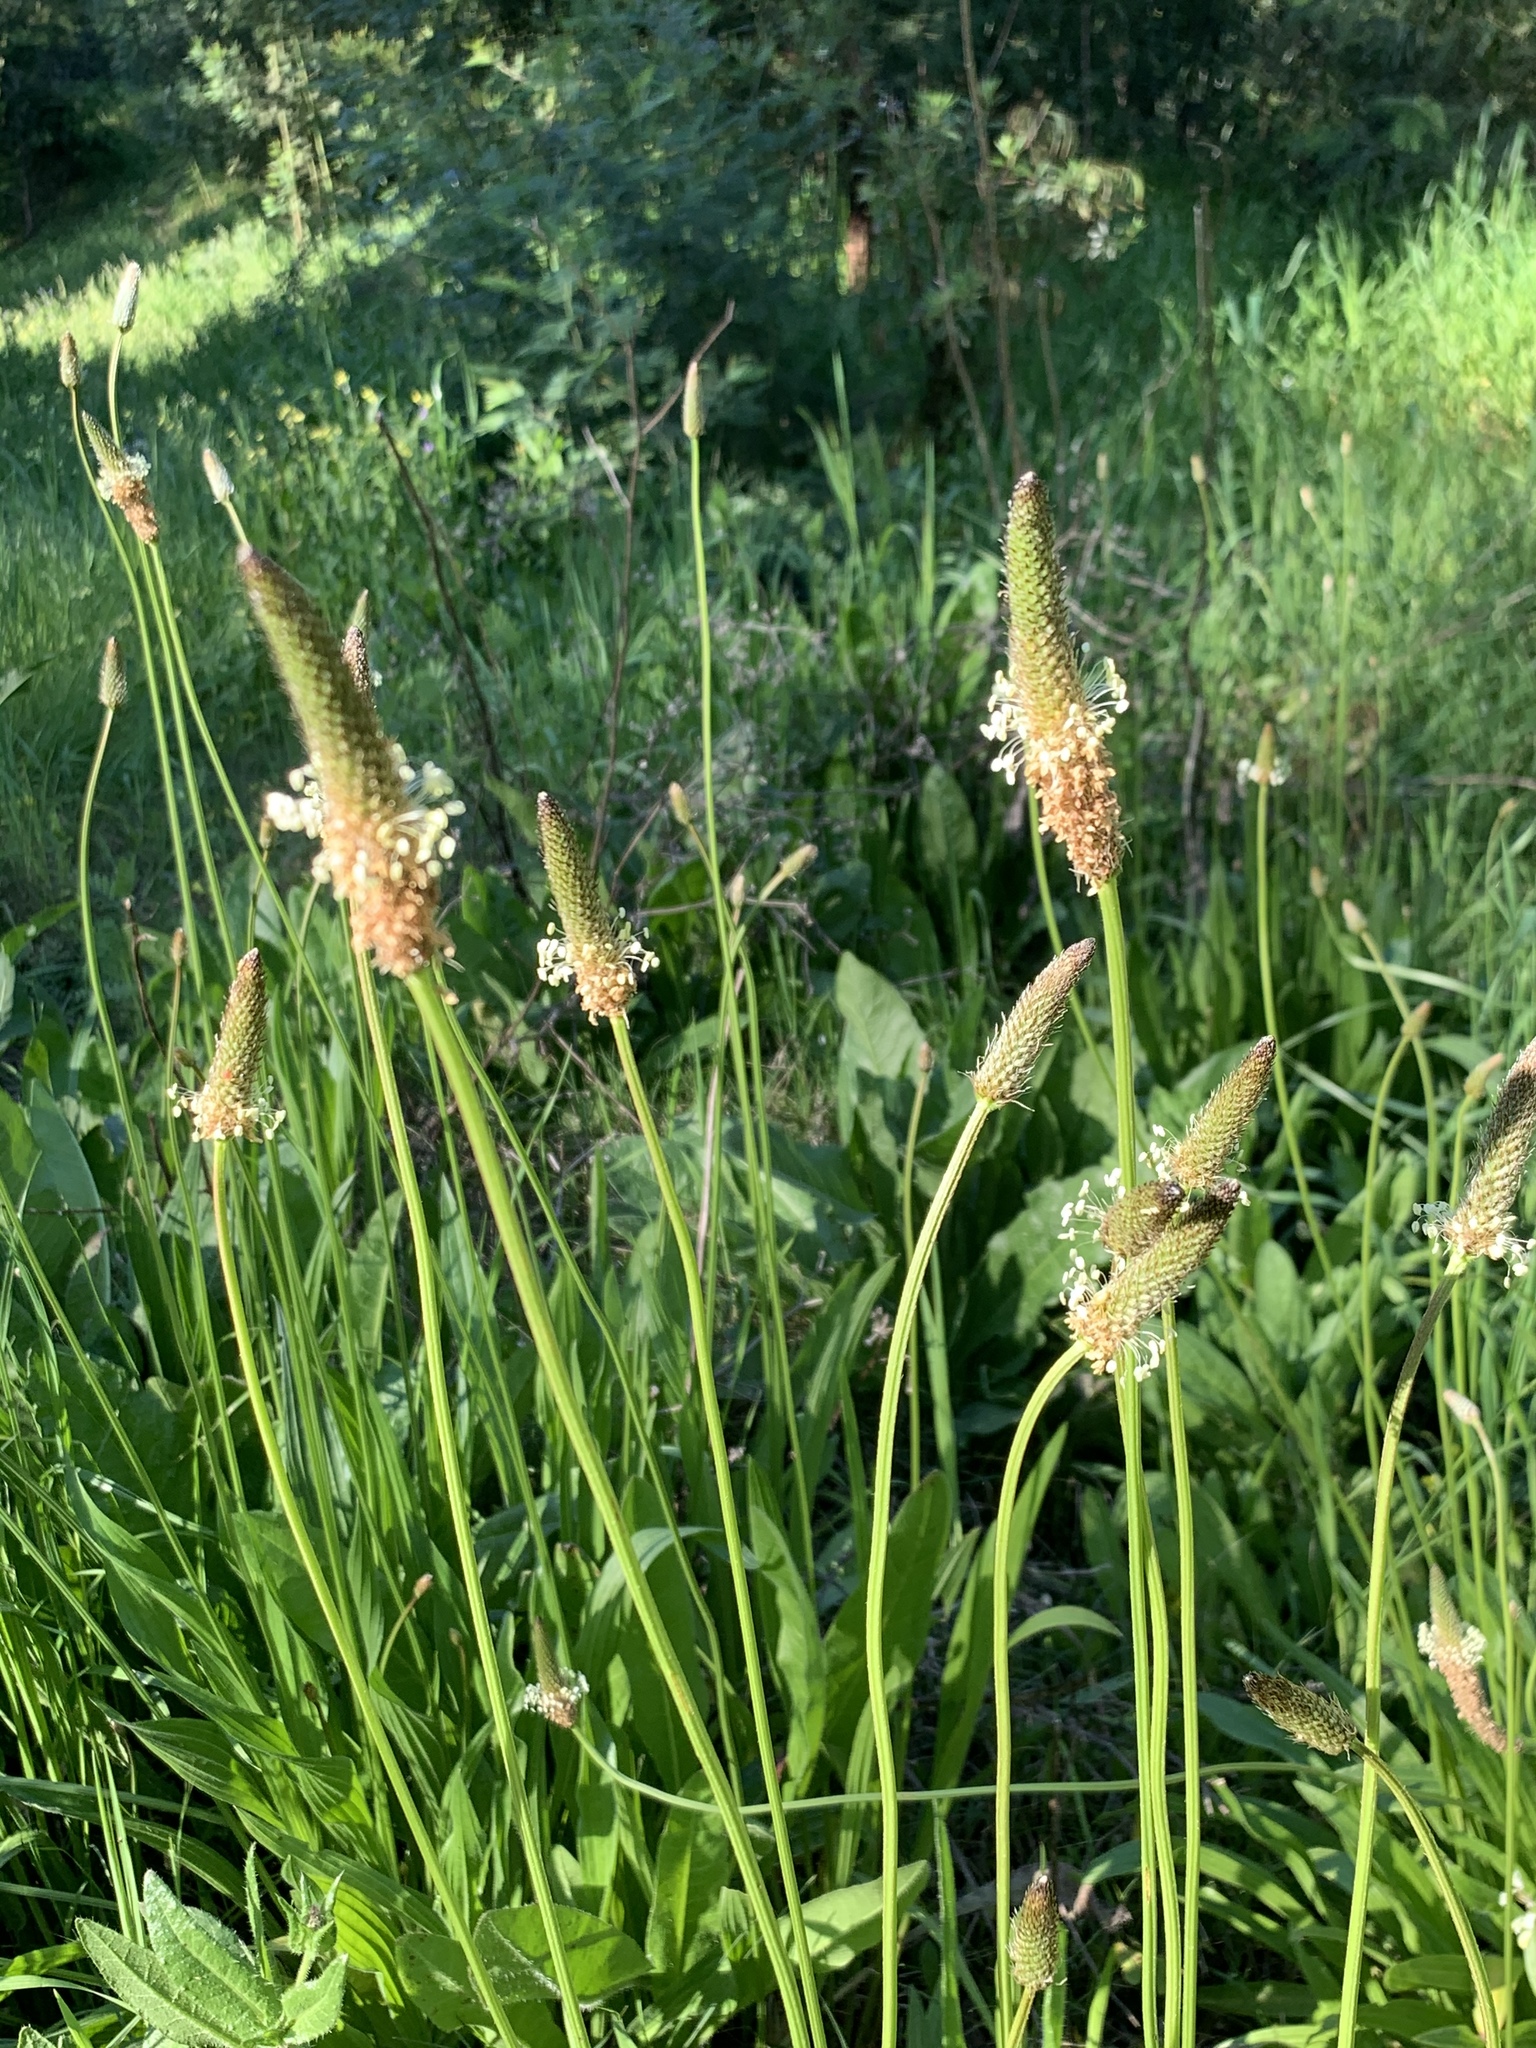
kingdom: Plantae
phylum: Tracheophyta
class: Magnoliopsida
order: Lamiales
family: Plantaginaceae
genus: Plantago
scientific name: Plantago lanceolata
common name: Ribwort plantain
